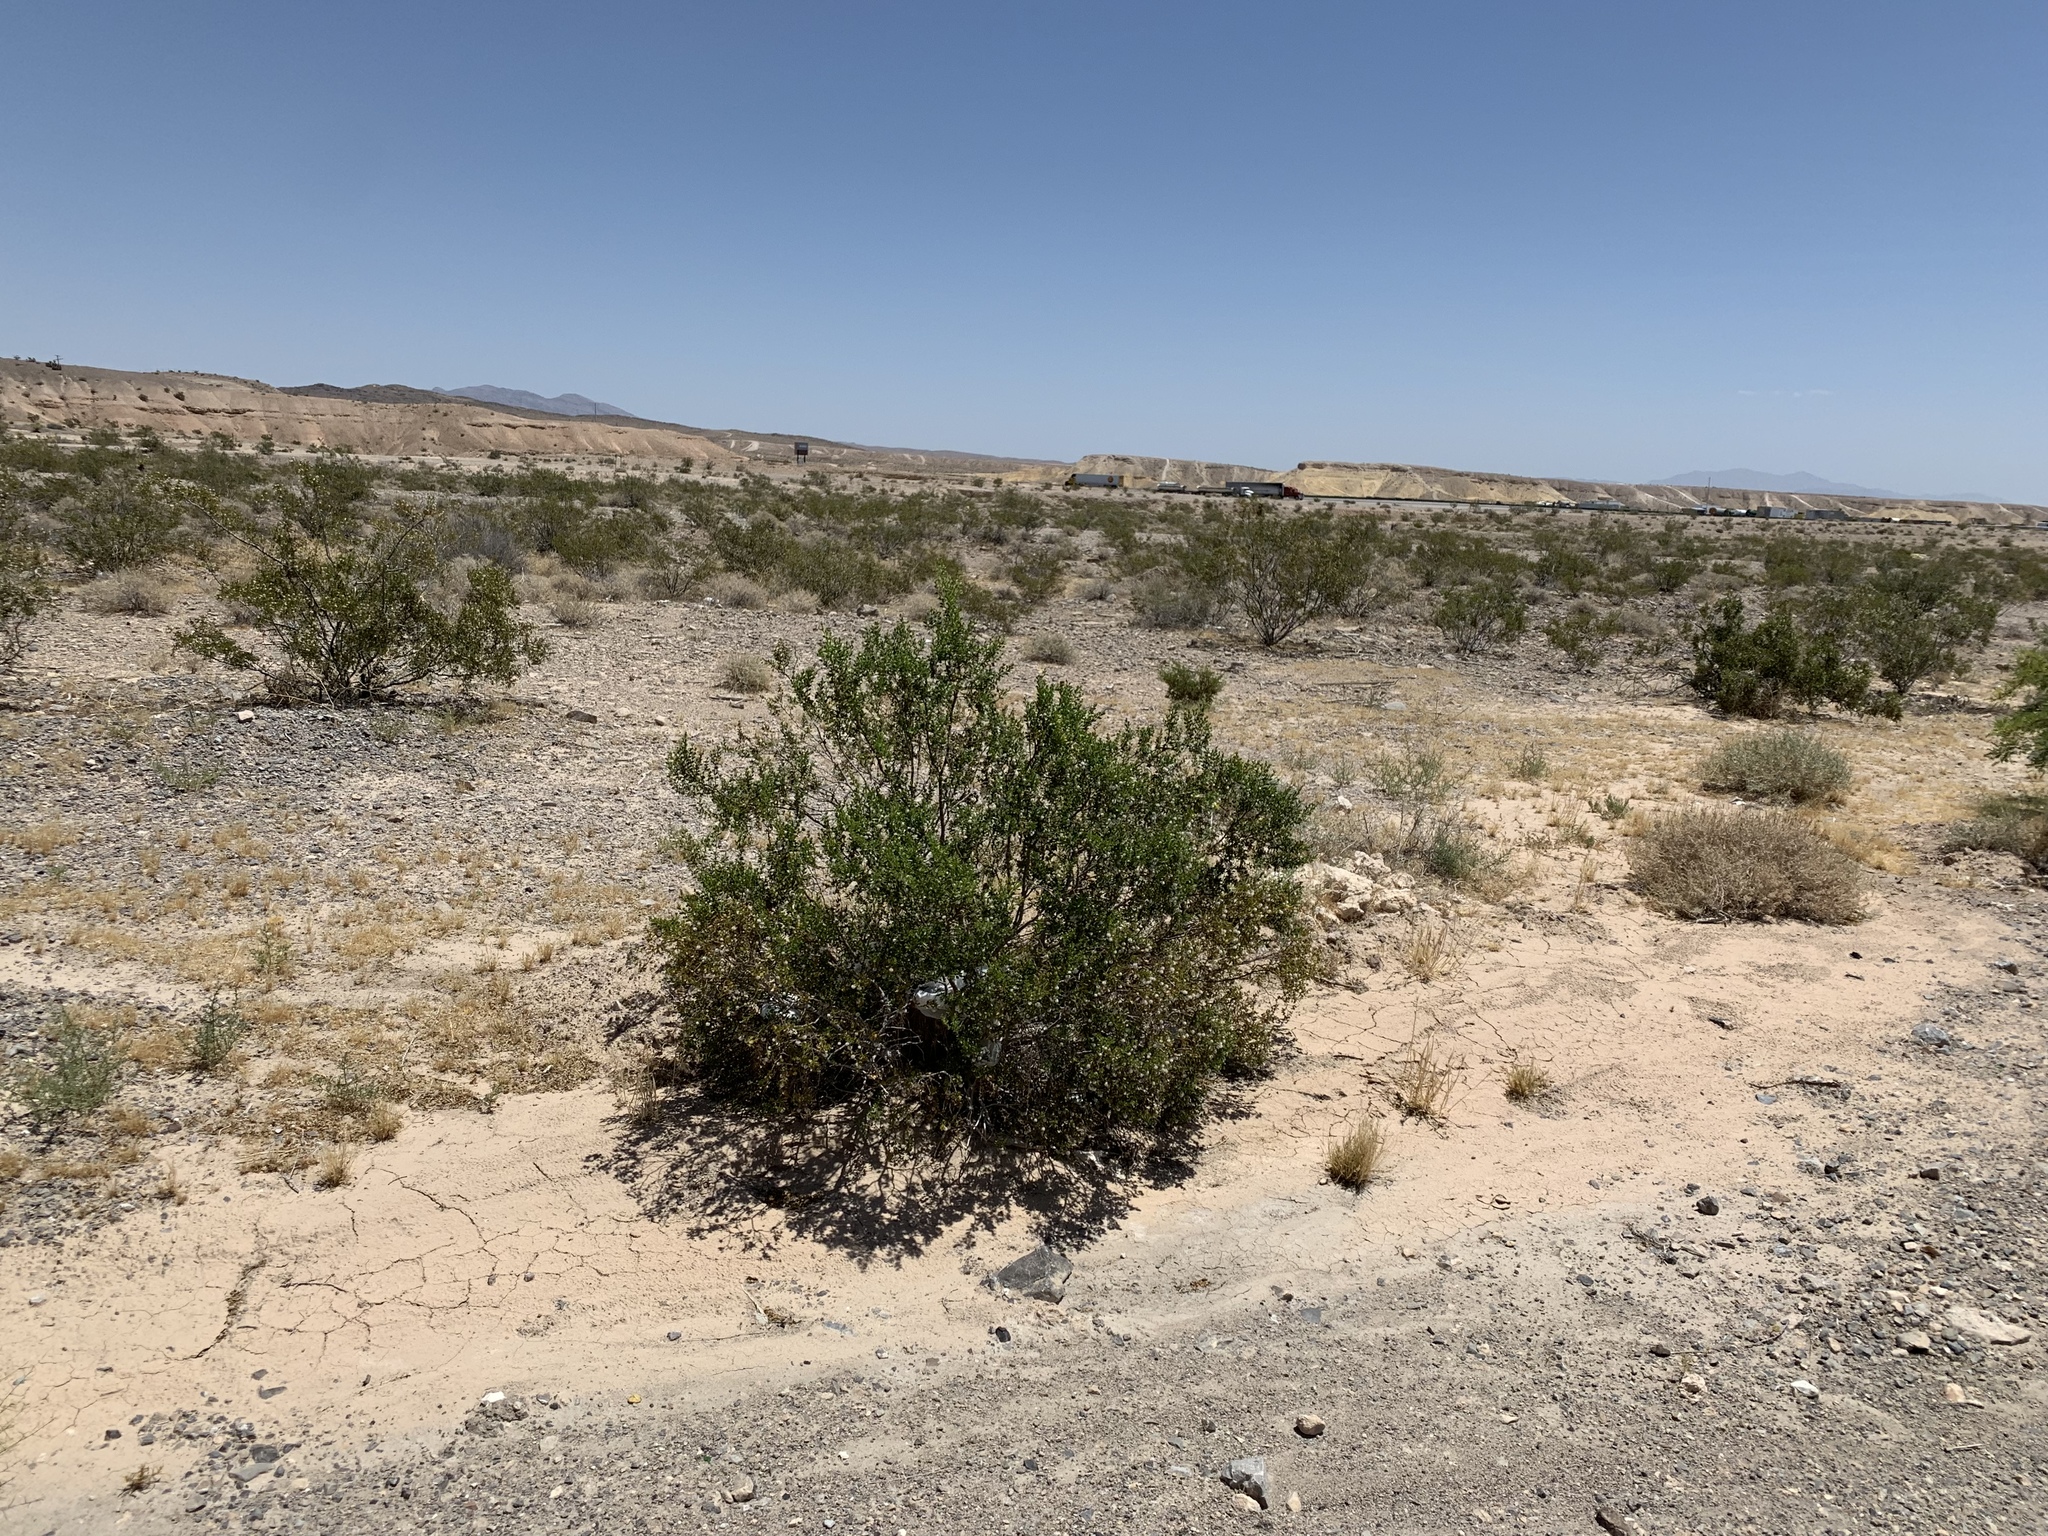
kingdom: Plantae
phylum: Tracheophyta
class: Magnoliopsida
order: Zygophyllales
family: Zygophyllaceae
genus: Larrea
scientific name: Larrea tridentata
